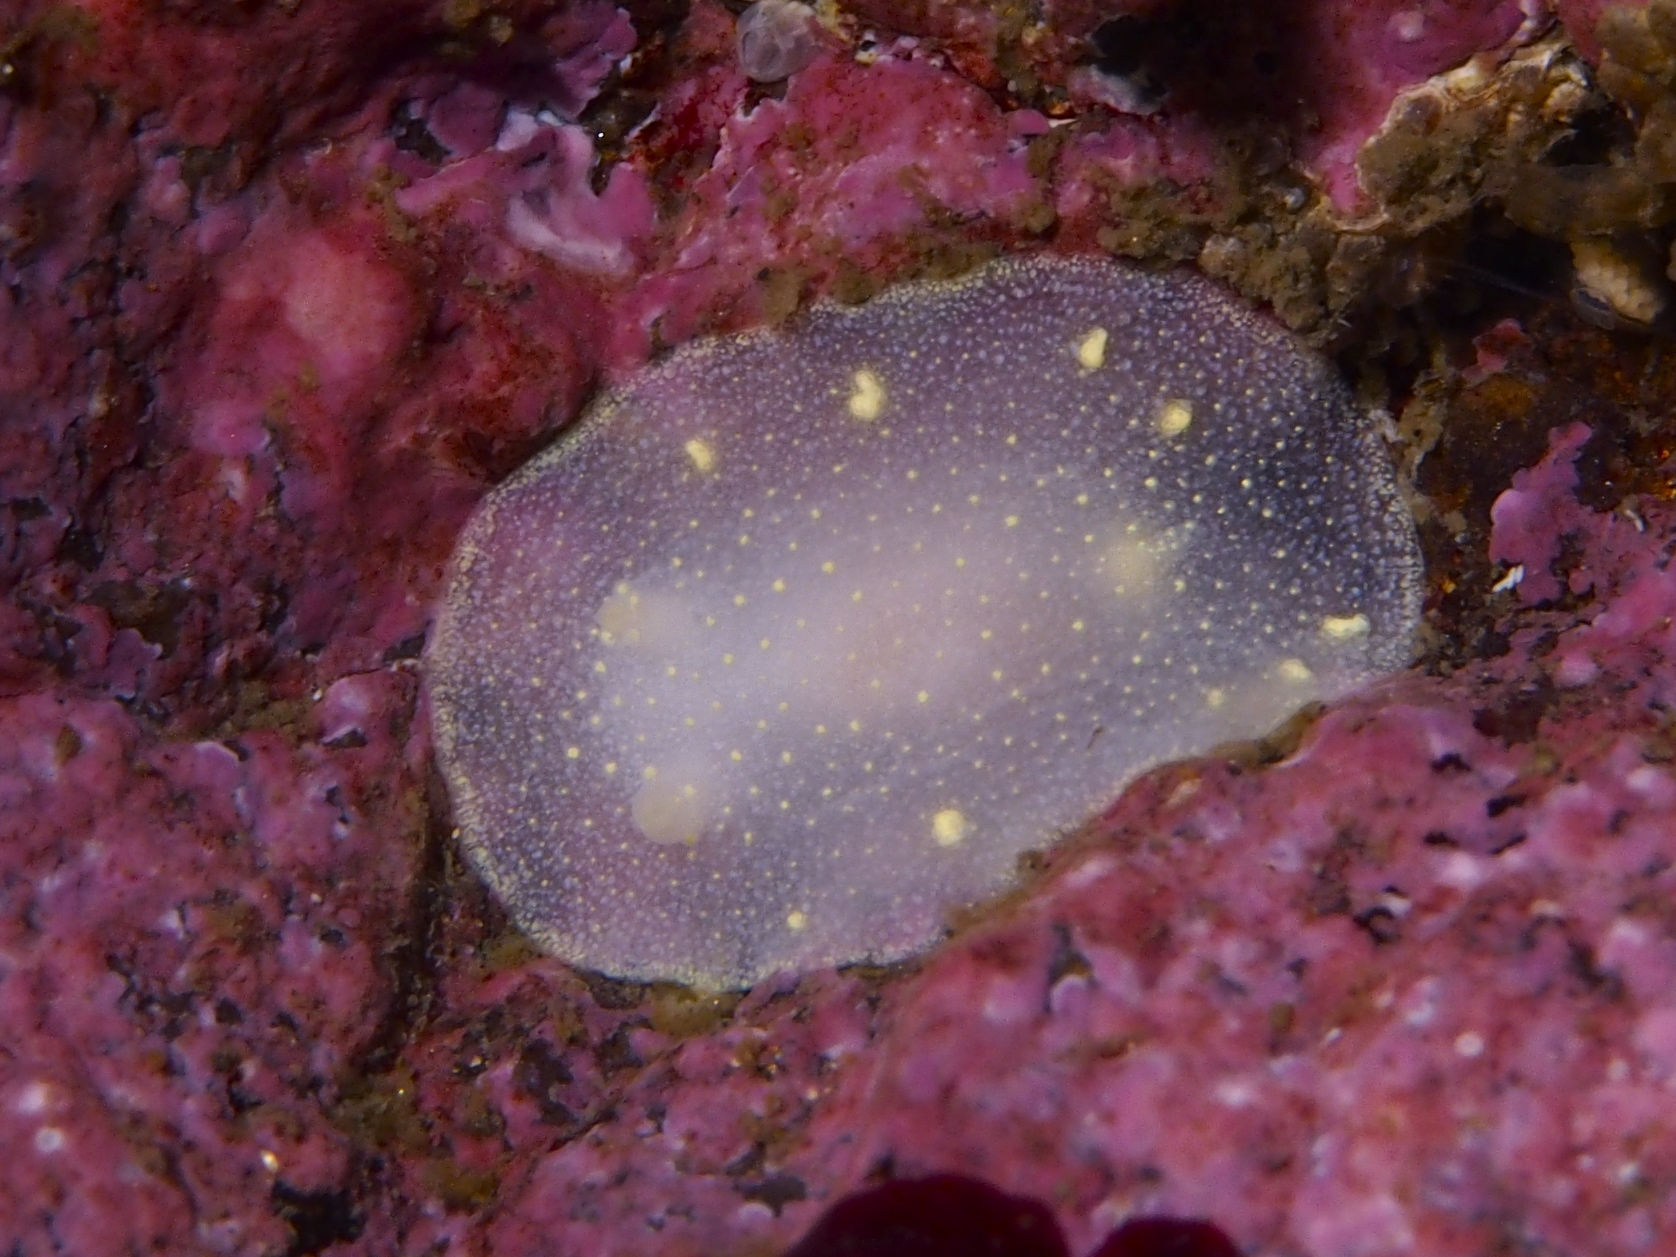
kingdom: Animalia
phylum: Mollusca
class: Gastropoda
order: Nudibranchia
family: Cadlinidae
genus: Cadlina
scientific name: Cadlina laevis
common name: White atlantic cadlina
